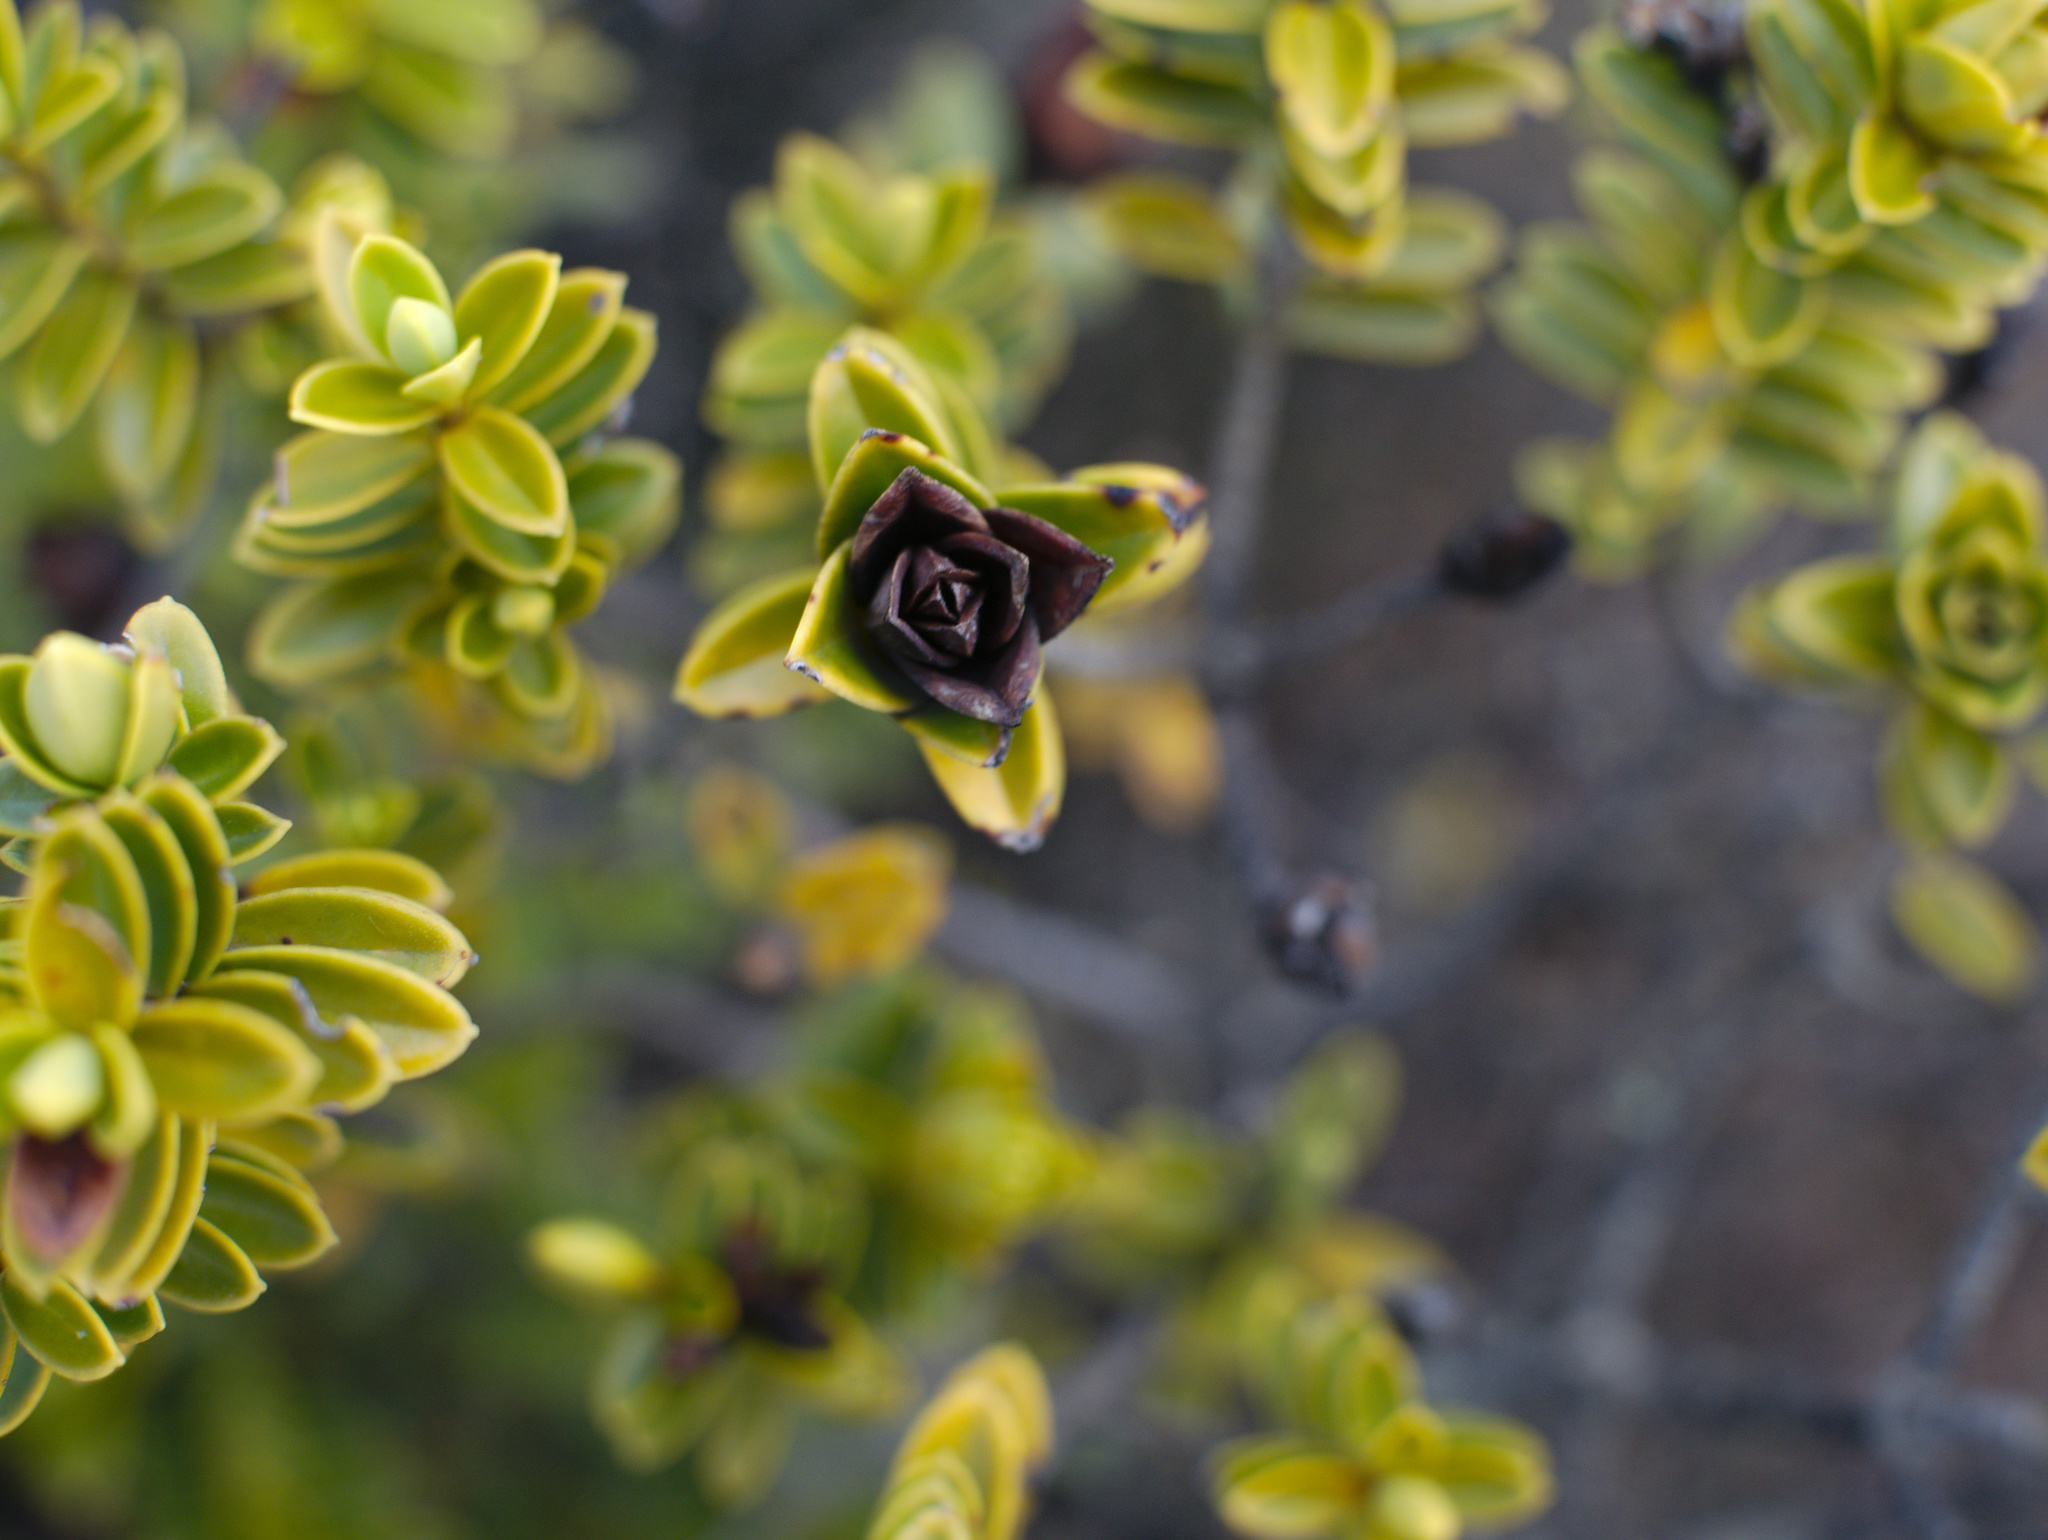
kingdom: Plantae
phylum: Tracheophyta
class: Magnoliopsida
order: Lamiales
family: Plantaginaceae
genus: Veronica
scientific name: Veronica odora
